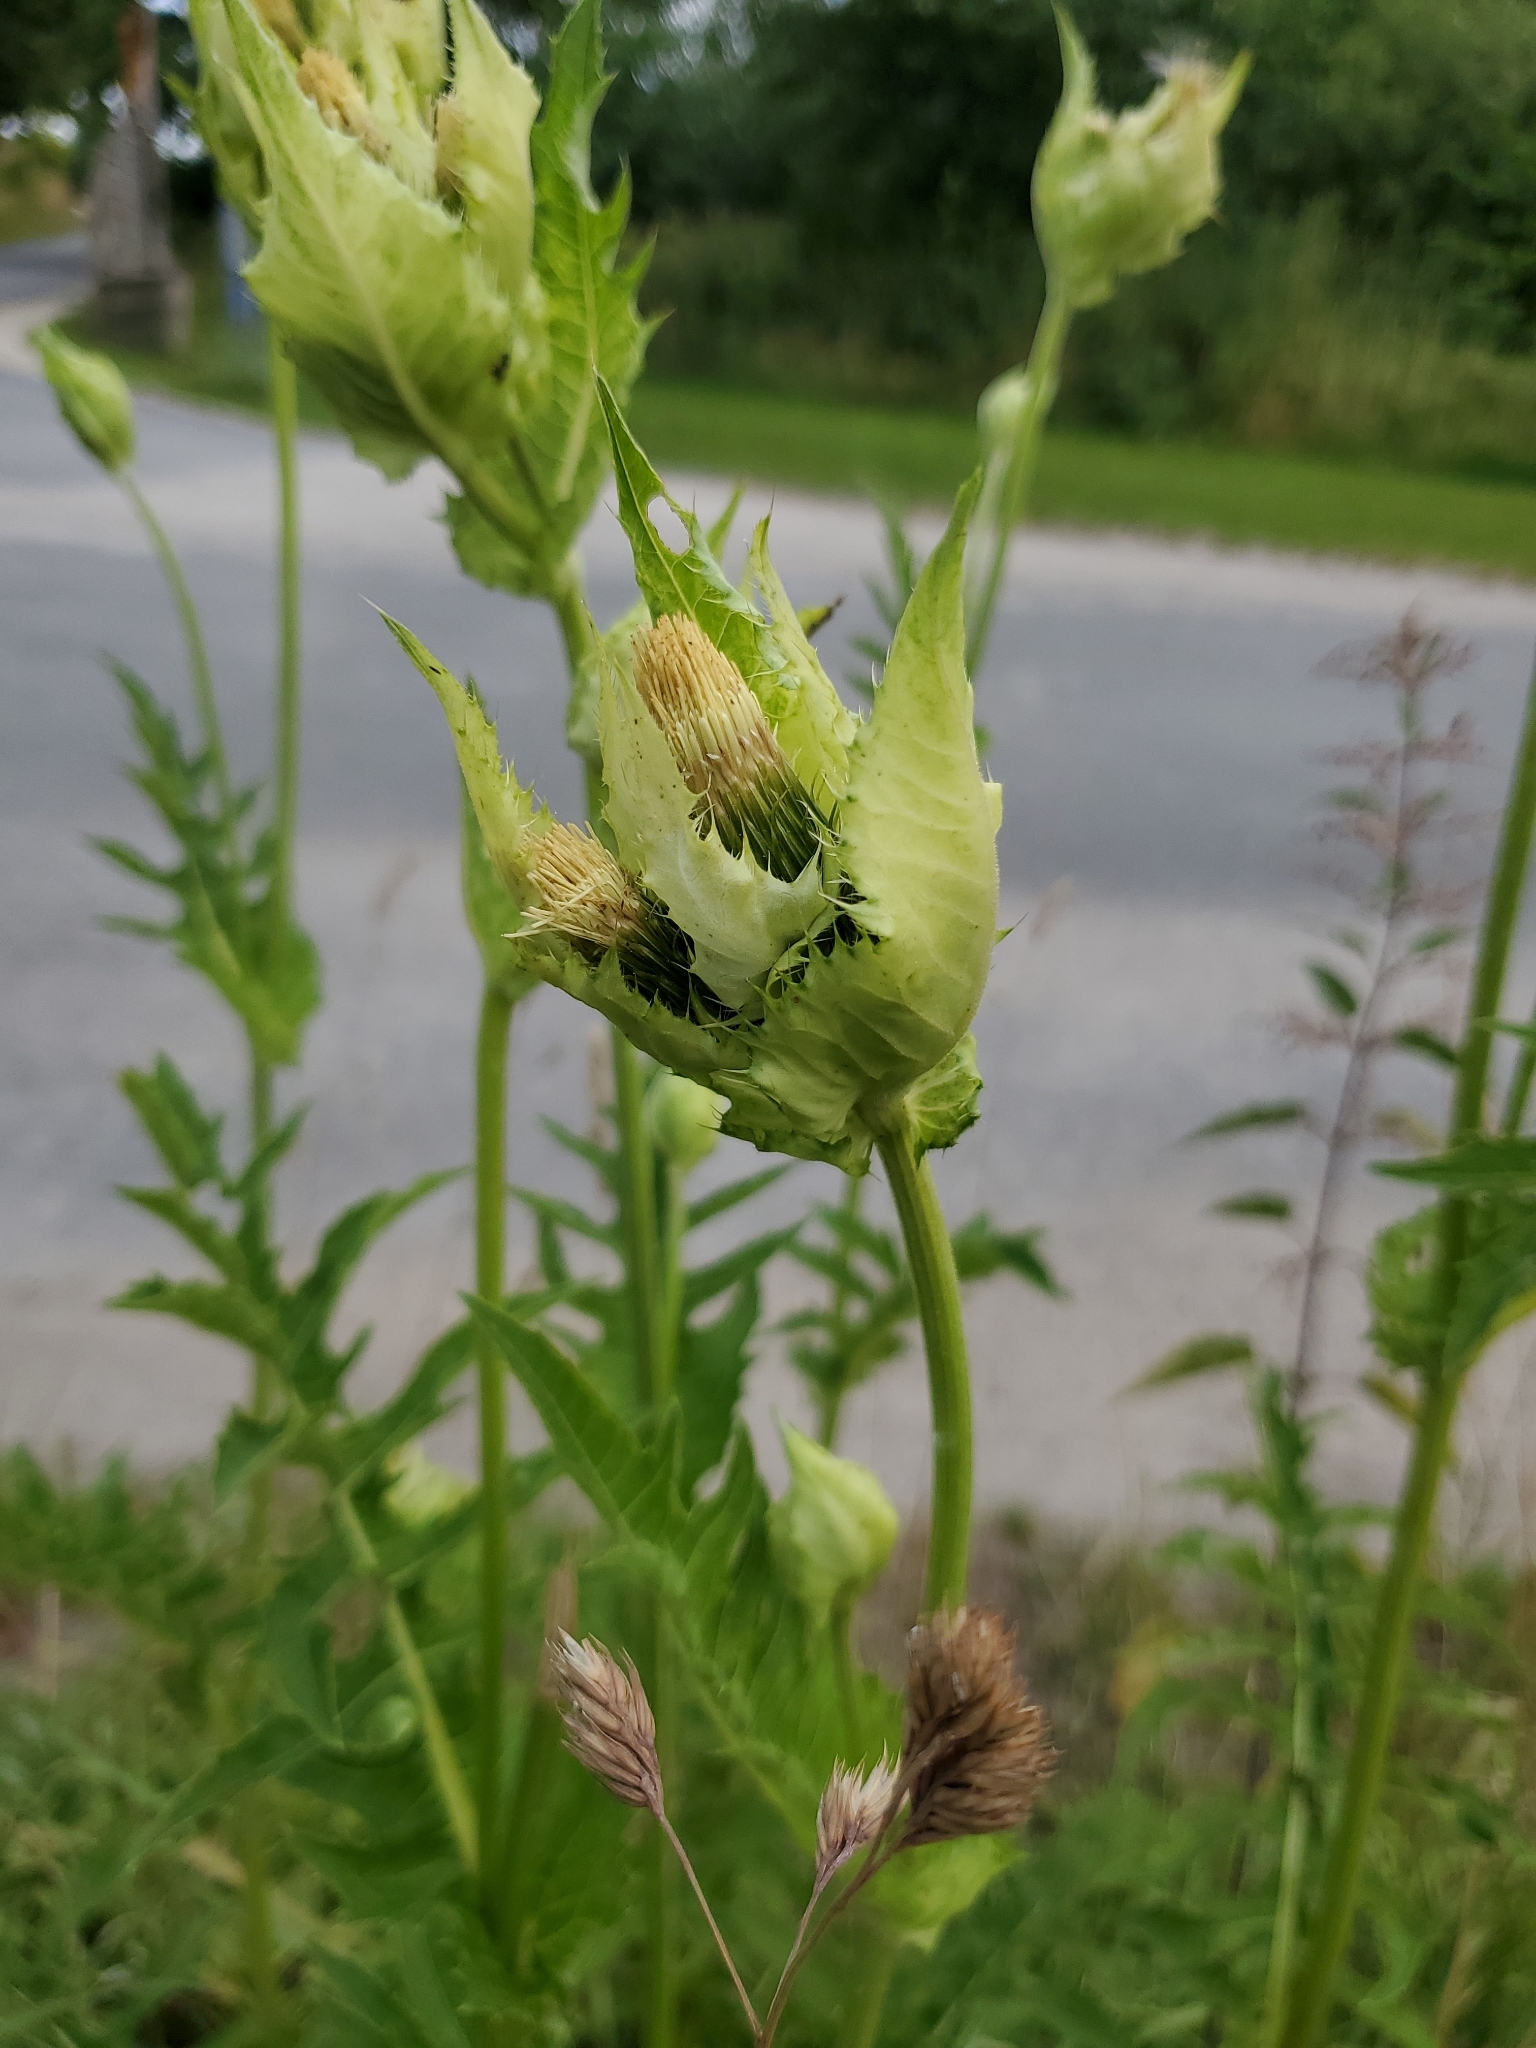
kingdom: Plantae
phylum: Tracheophyta
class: Magnoliopsida
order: Asterales
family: Asteraceae
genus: Cirsium
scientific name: Cirsium oleraceum
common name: Cabbage thistle
